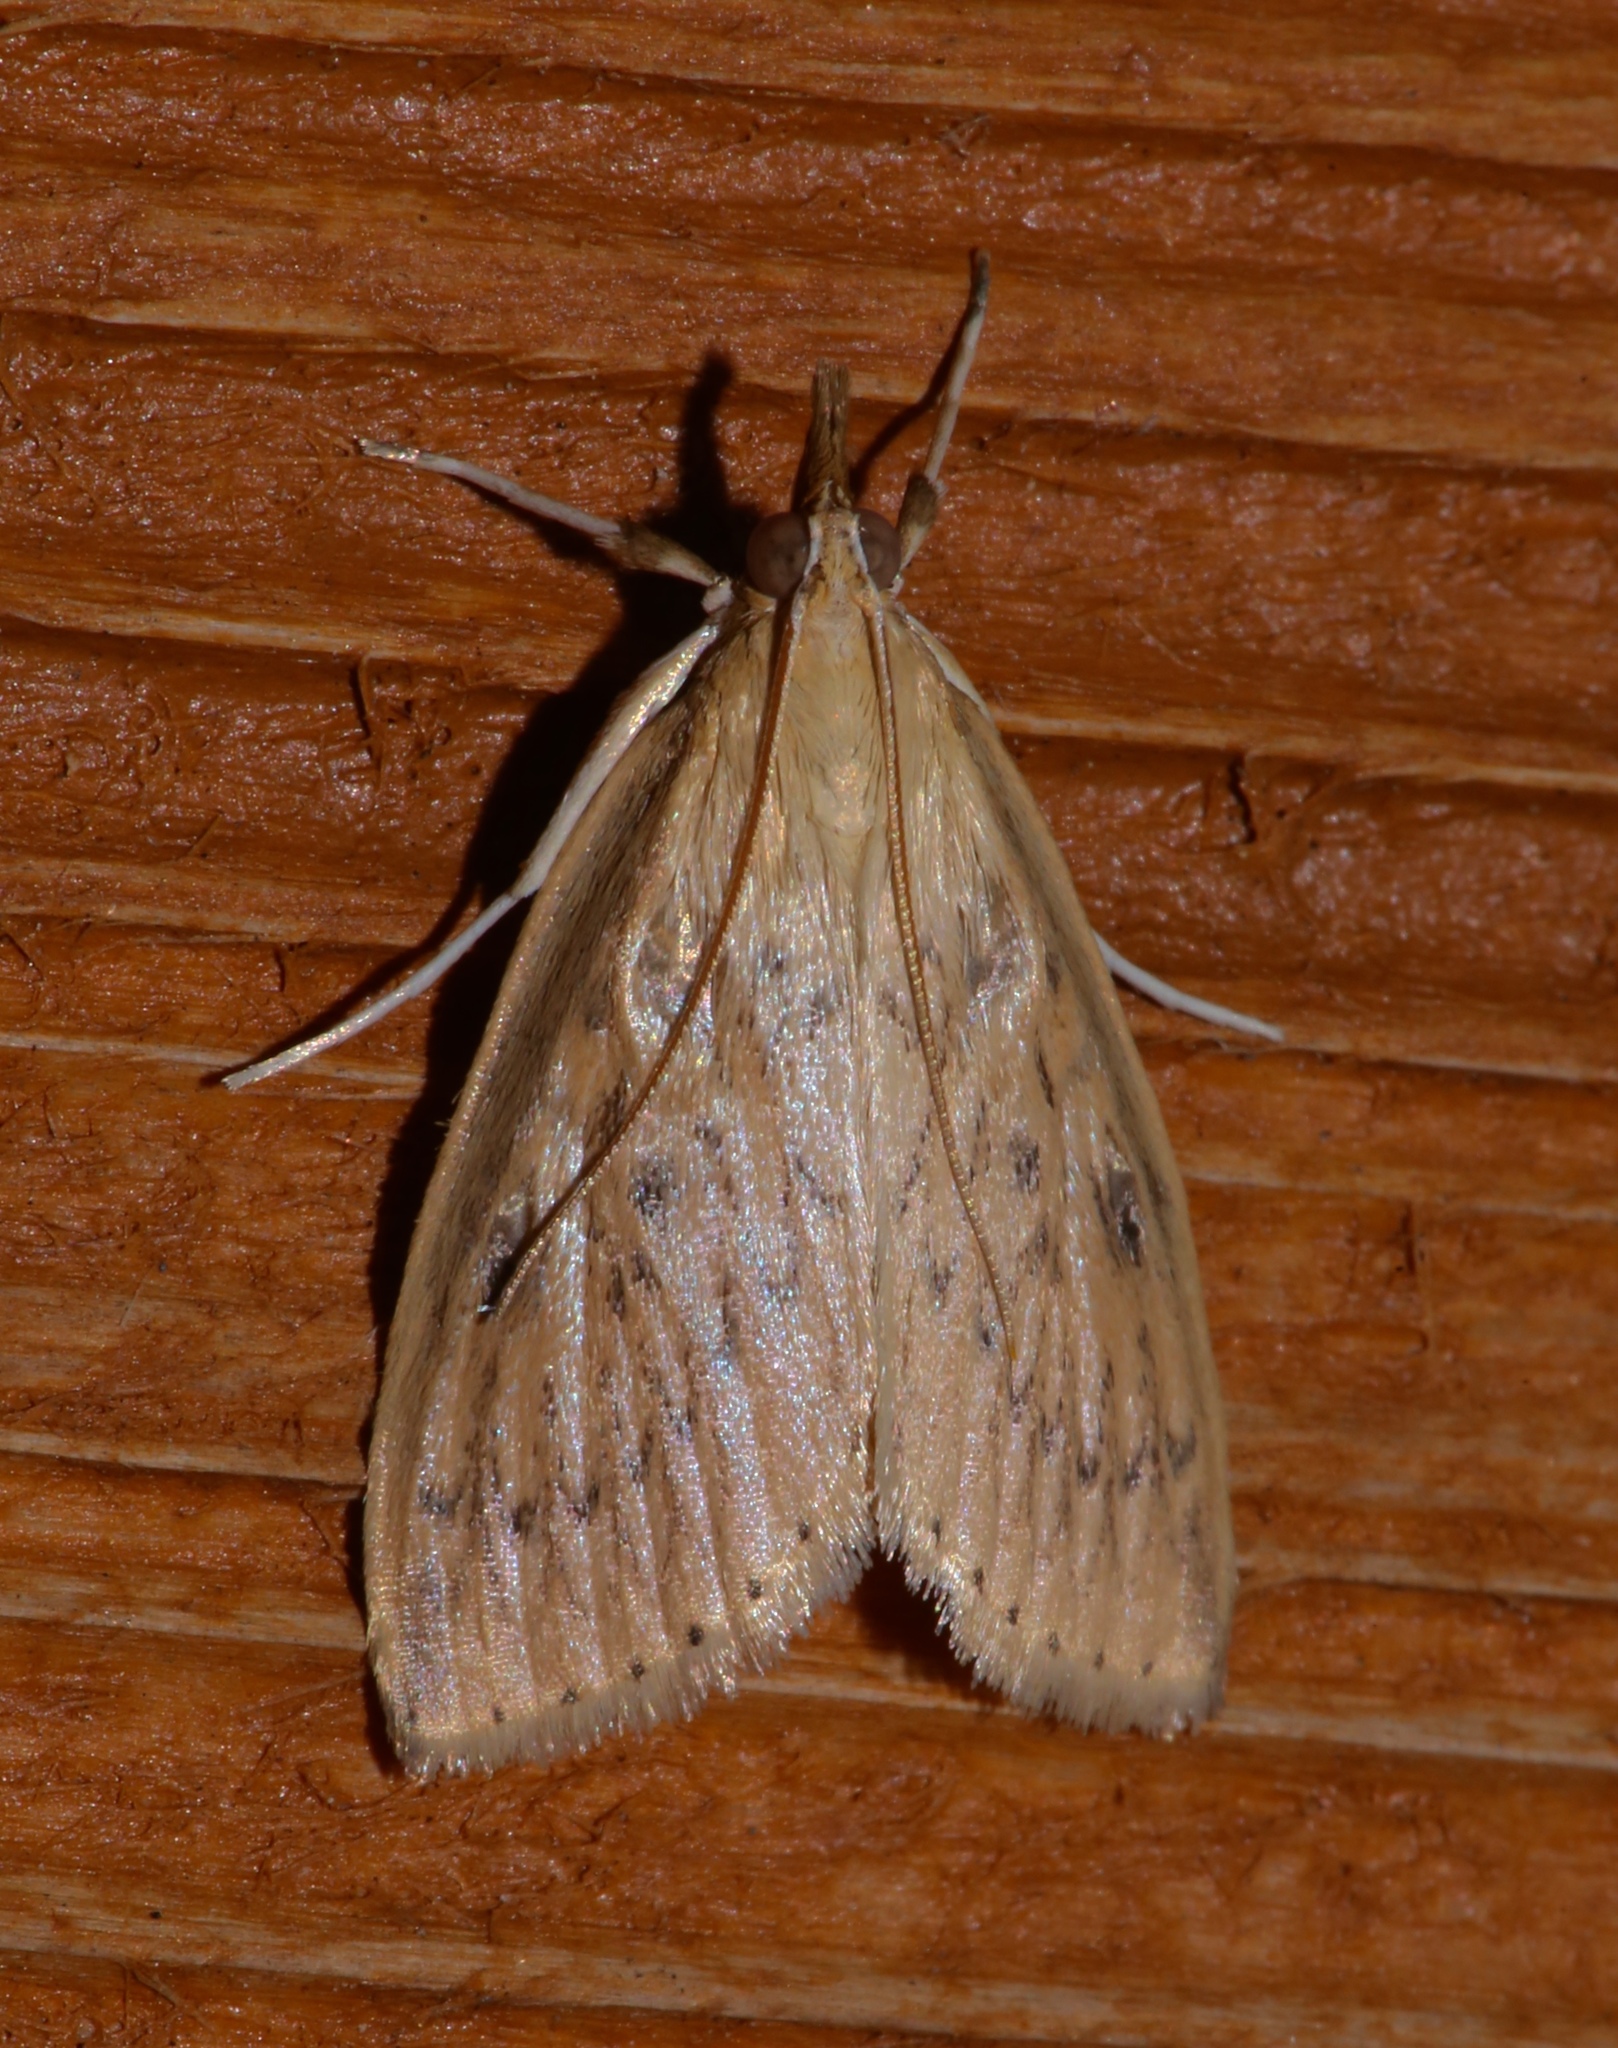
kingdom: Animalia
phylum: Arthropoda
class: Insecta
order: Lepidoptera
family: Crambidae
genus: Crocidophora
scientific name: Crocidophora pustuliferalis
